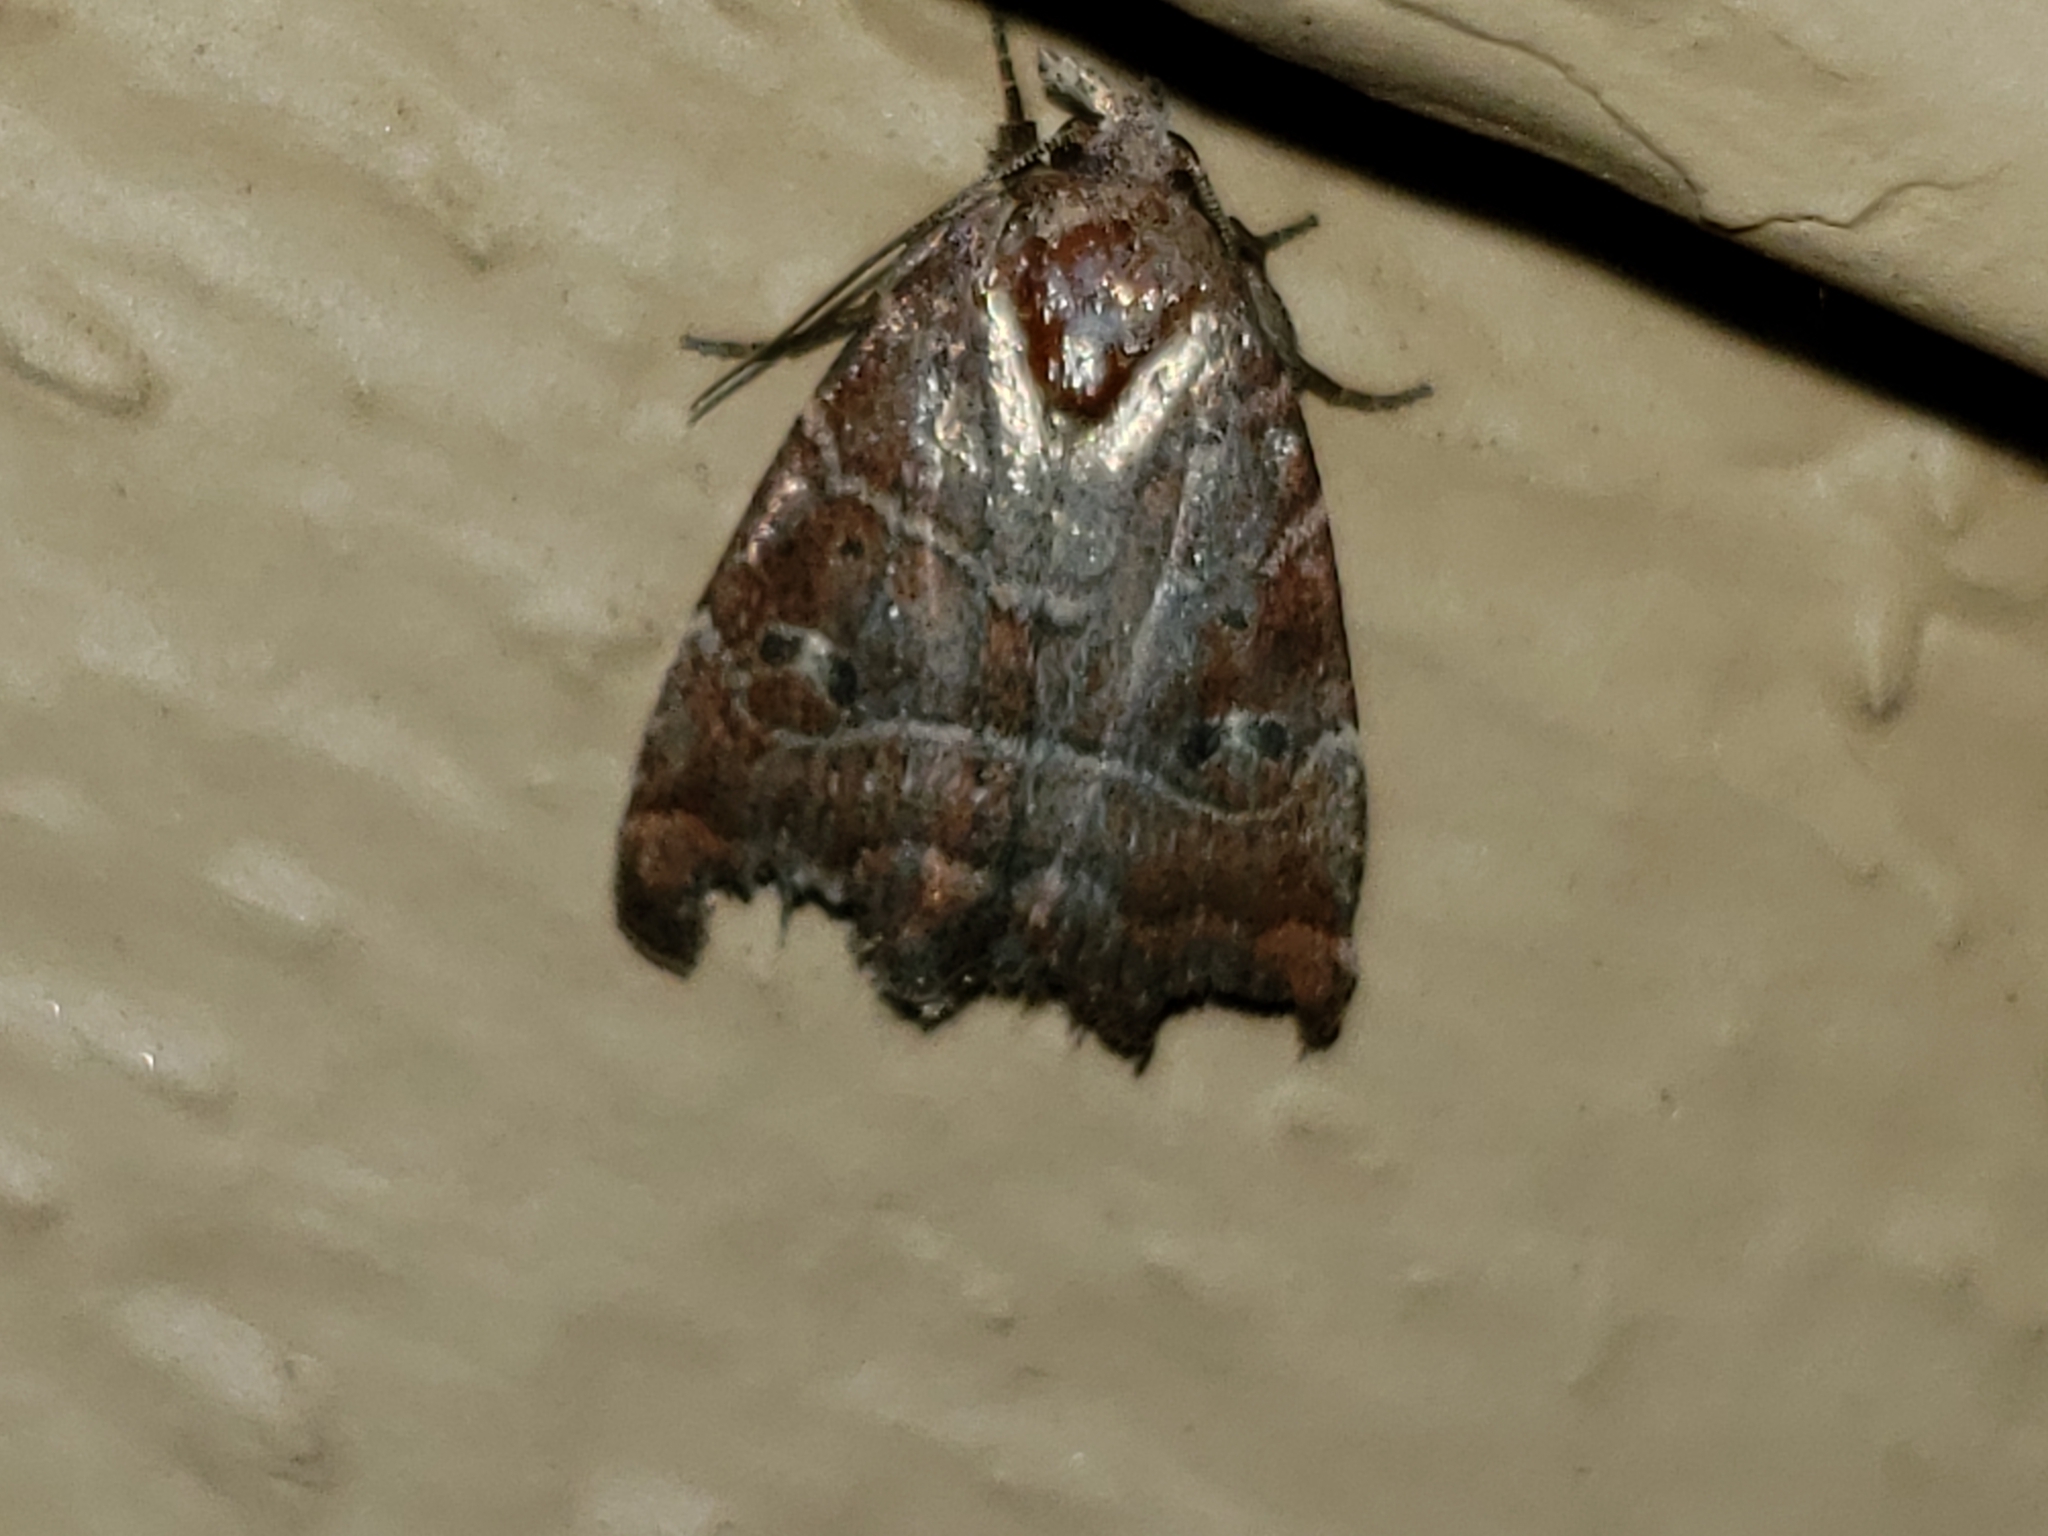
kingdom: Animalia
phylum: Arthropoda
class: Insecta
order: Lepidoptera
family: Noctuidae
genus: Elaphria
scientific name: Elaphria grata
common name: Grateful midget moth
